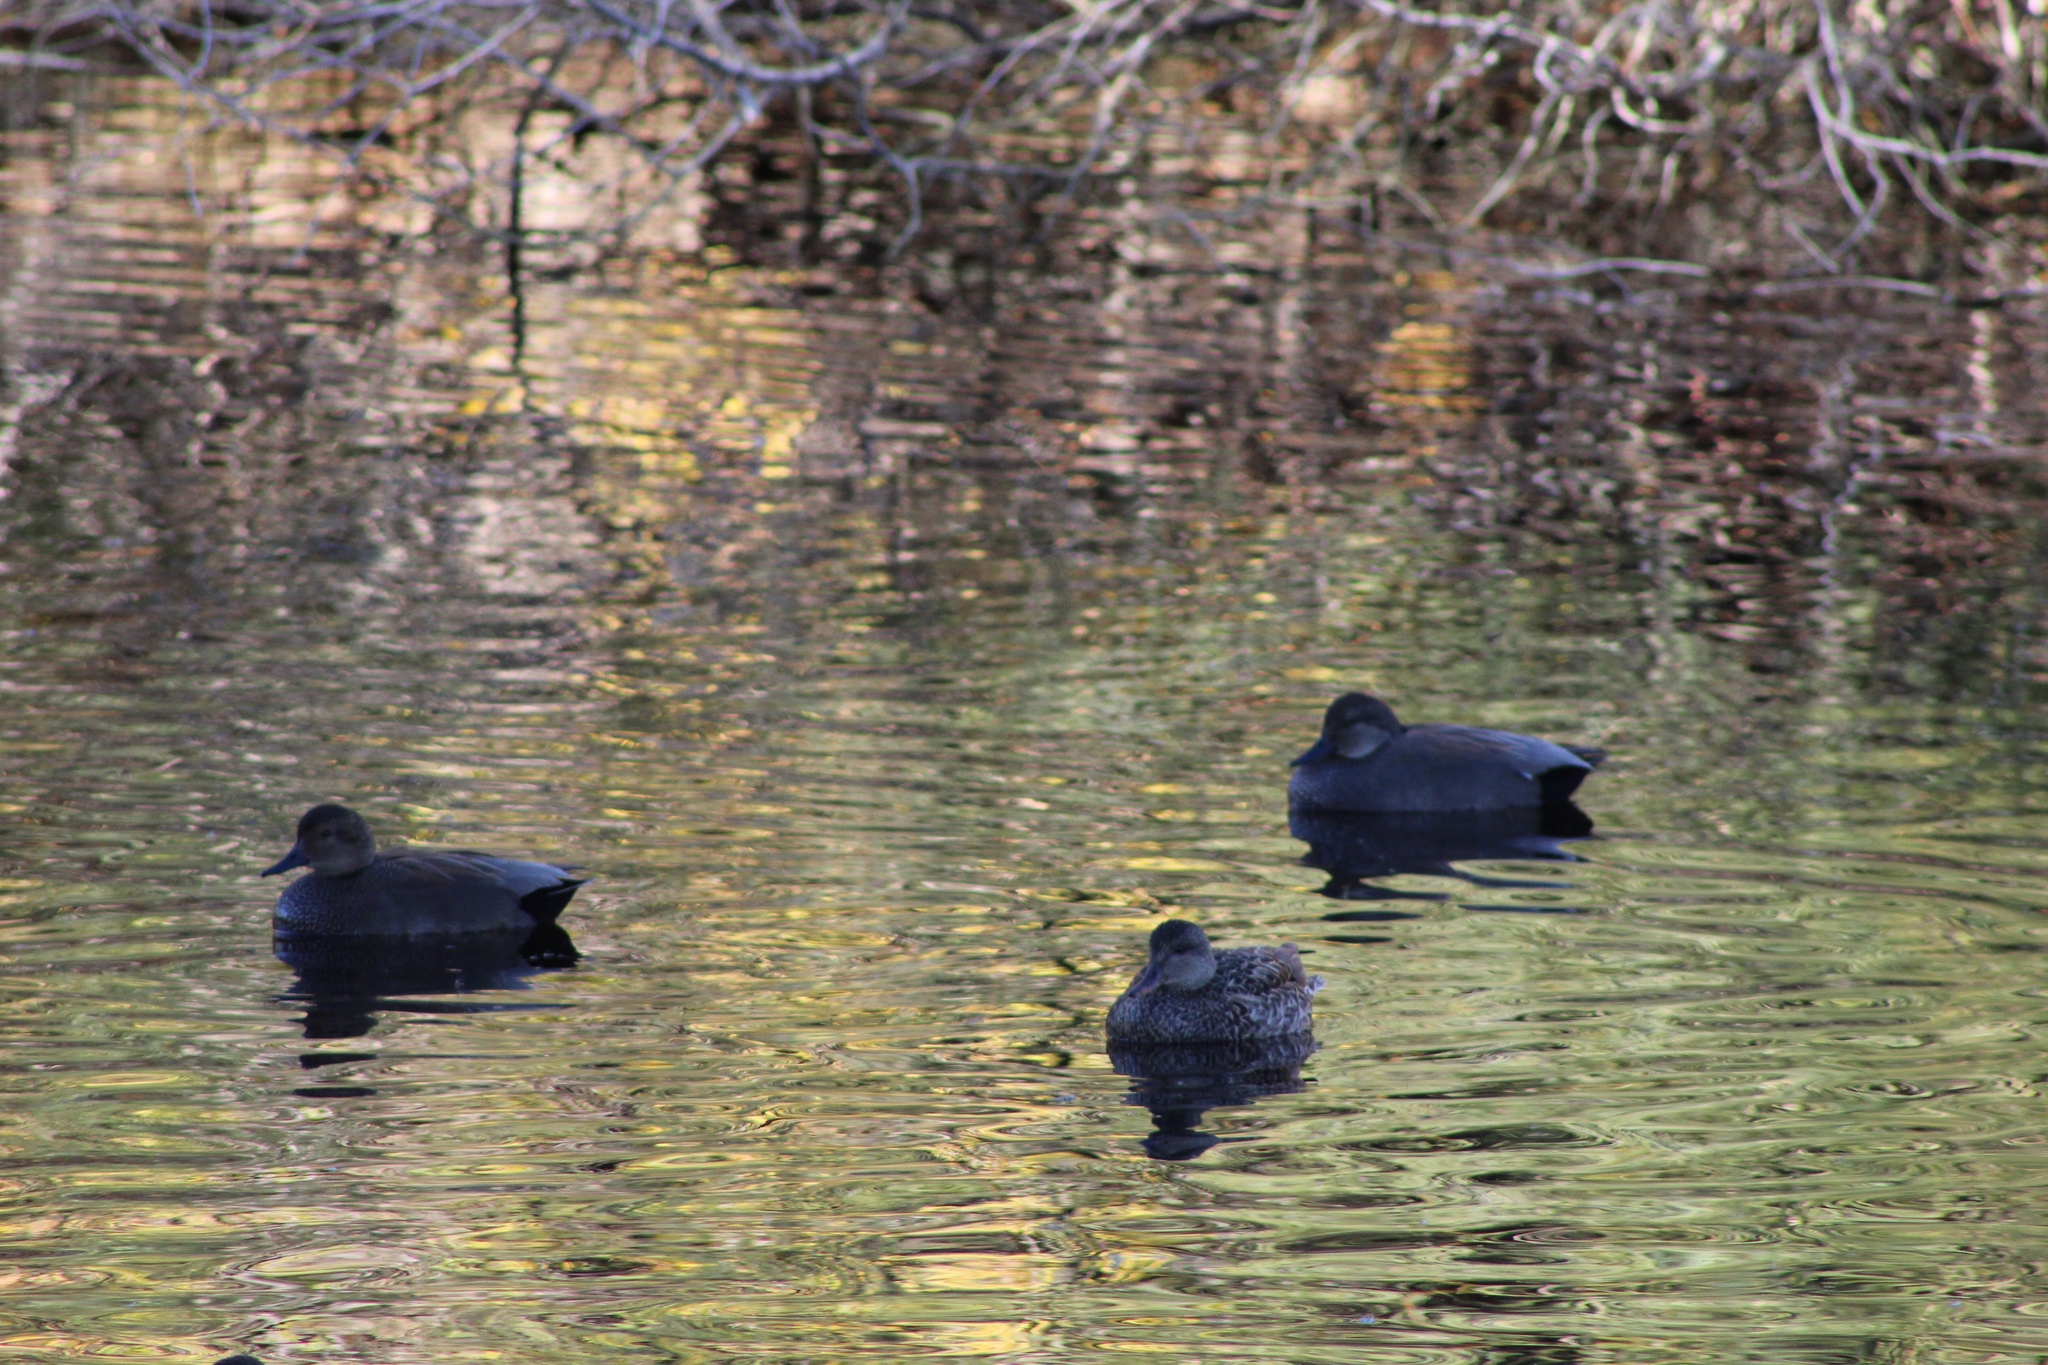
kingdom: Animalia
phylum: Chordata
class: Aves
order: Anseriformes
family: Anatidae
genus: Anas
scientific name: Anas platyrhynchos
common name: Mallard
